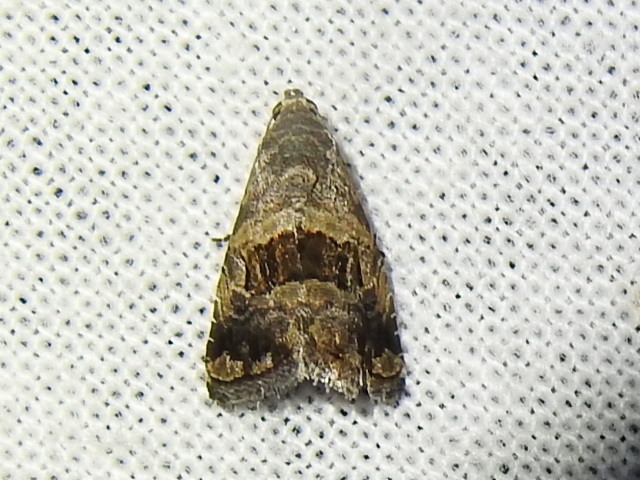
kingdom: Animalia
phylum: Arthropoda
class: Insecta
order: Lepidoptera
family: Noctuidae
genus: Tripudia
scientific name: Tripudia quadrifera
